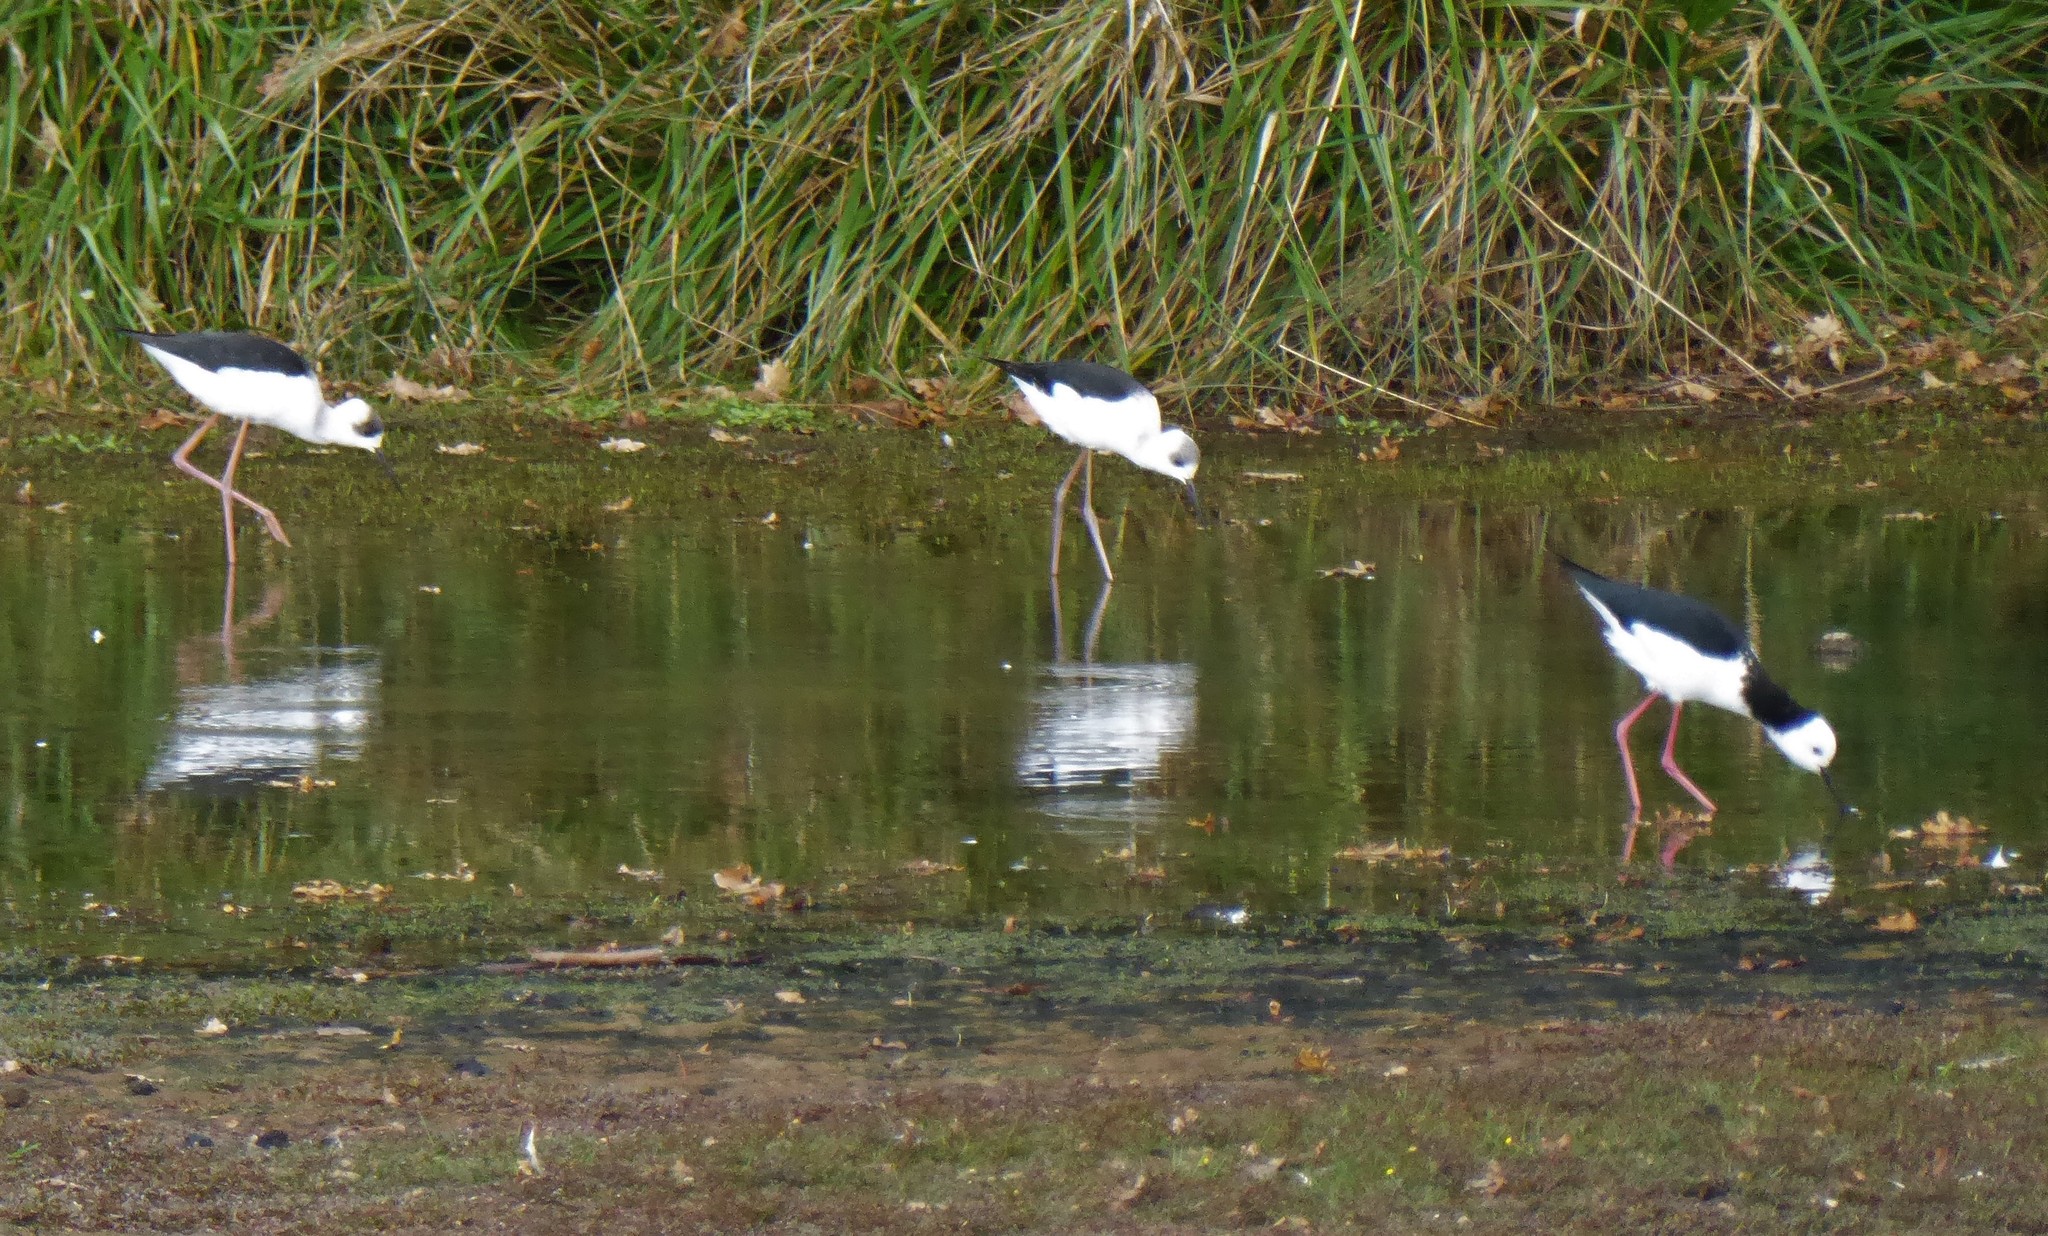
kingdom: Animalia
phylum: Chordata
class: Aves
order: Charadriiformes
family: Recurvirostridae
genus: Himantopus
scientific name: Himantopus leucocephalus
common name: White-headed stilt
